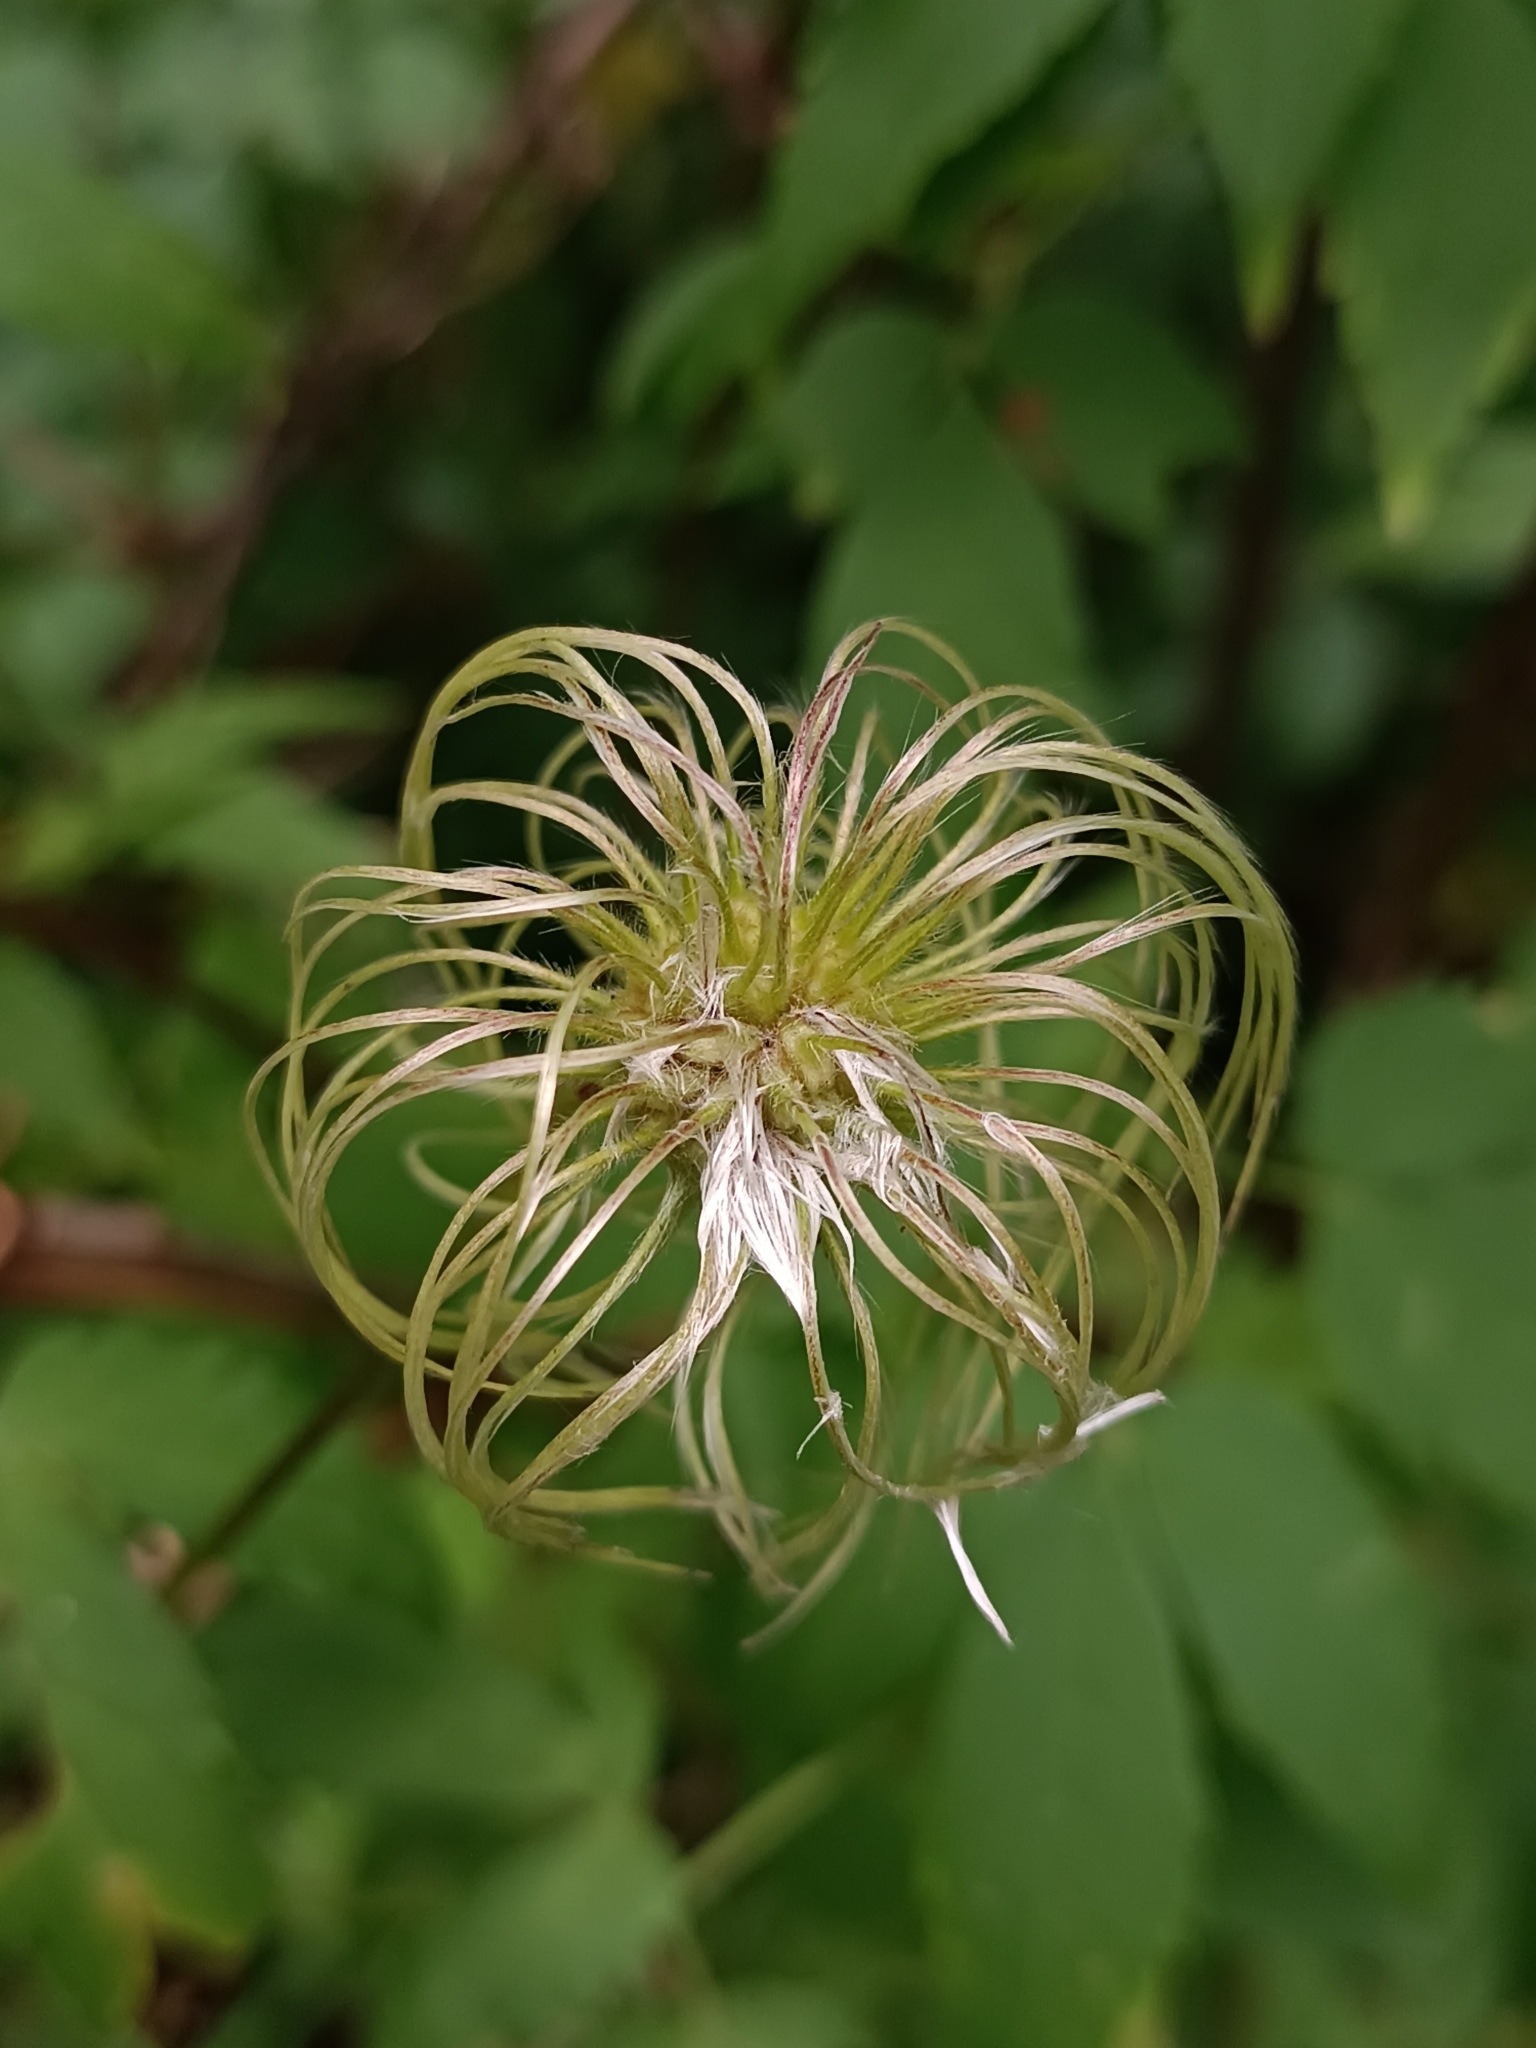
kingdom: Plantae
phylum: Tracheophyta
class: Magnoliopsida
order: Ranunculales
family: Ranunculaceae
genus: Clematis
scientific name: Clematis sibirica
